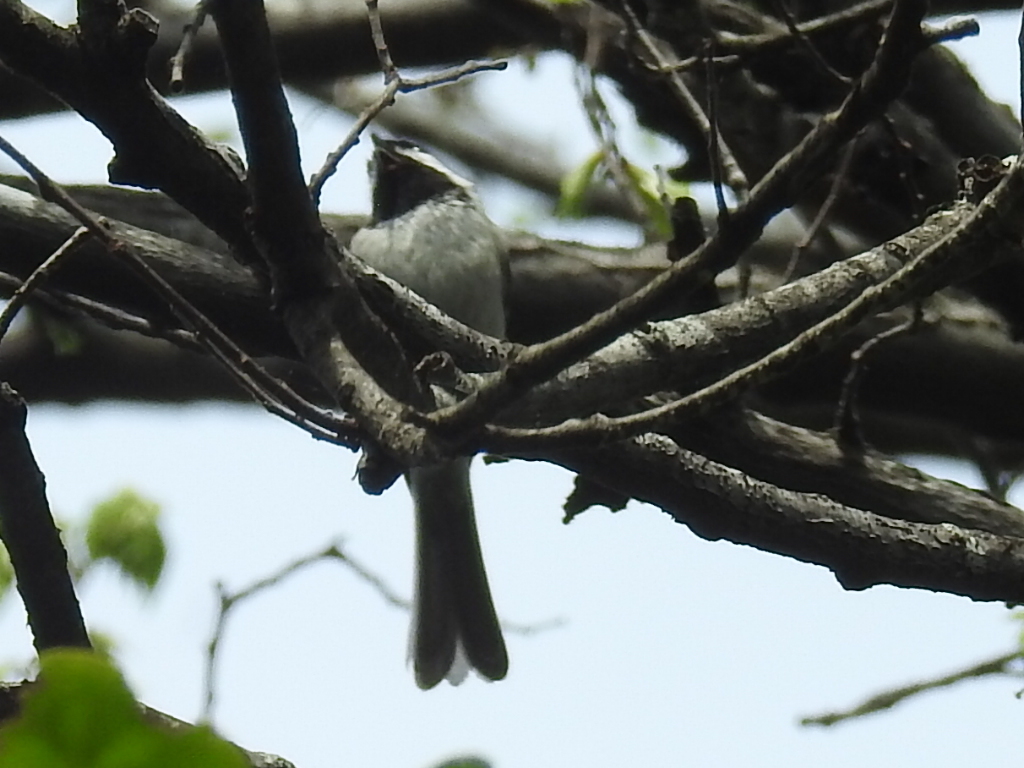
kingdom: Animalia
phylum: Chordata
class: Aves
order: Passeriformes
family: Paridae
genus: Poecile
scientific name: Poecile carolinensis
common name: Carolina chickadee
